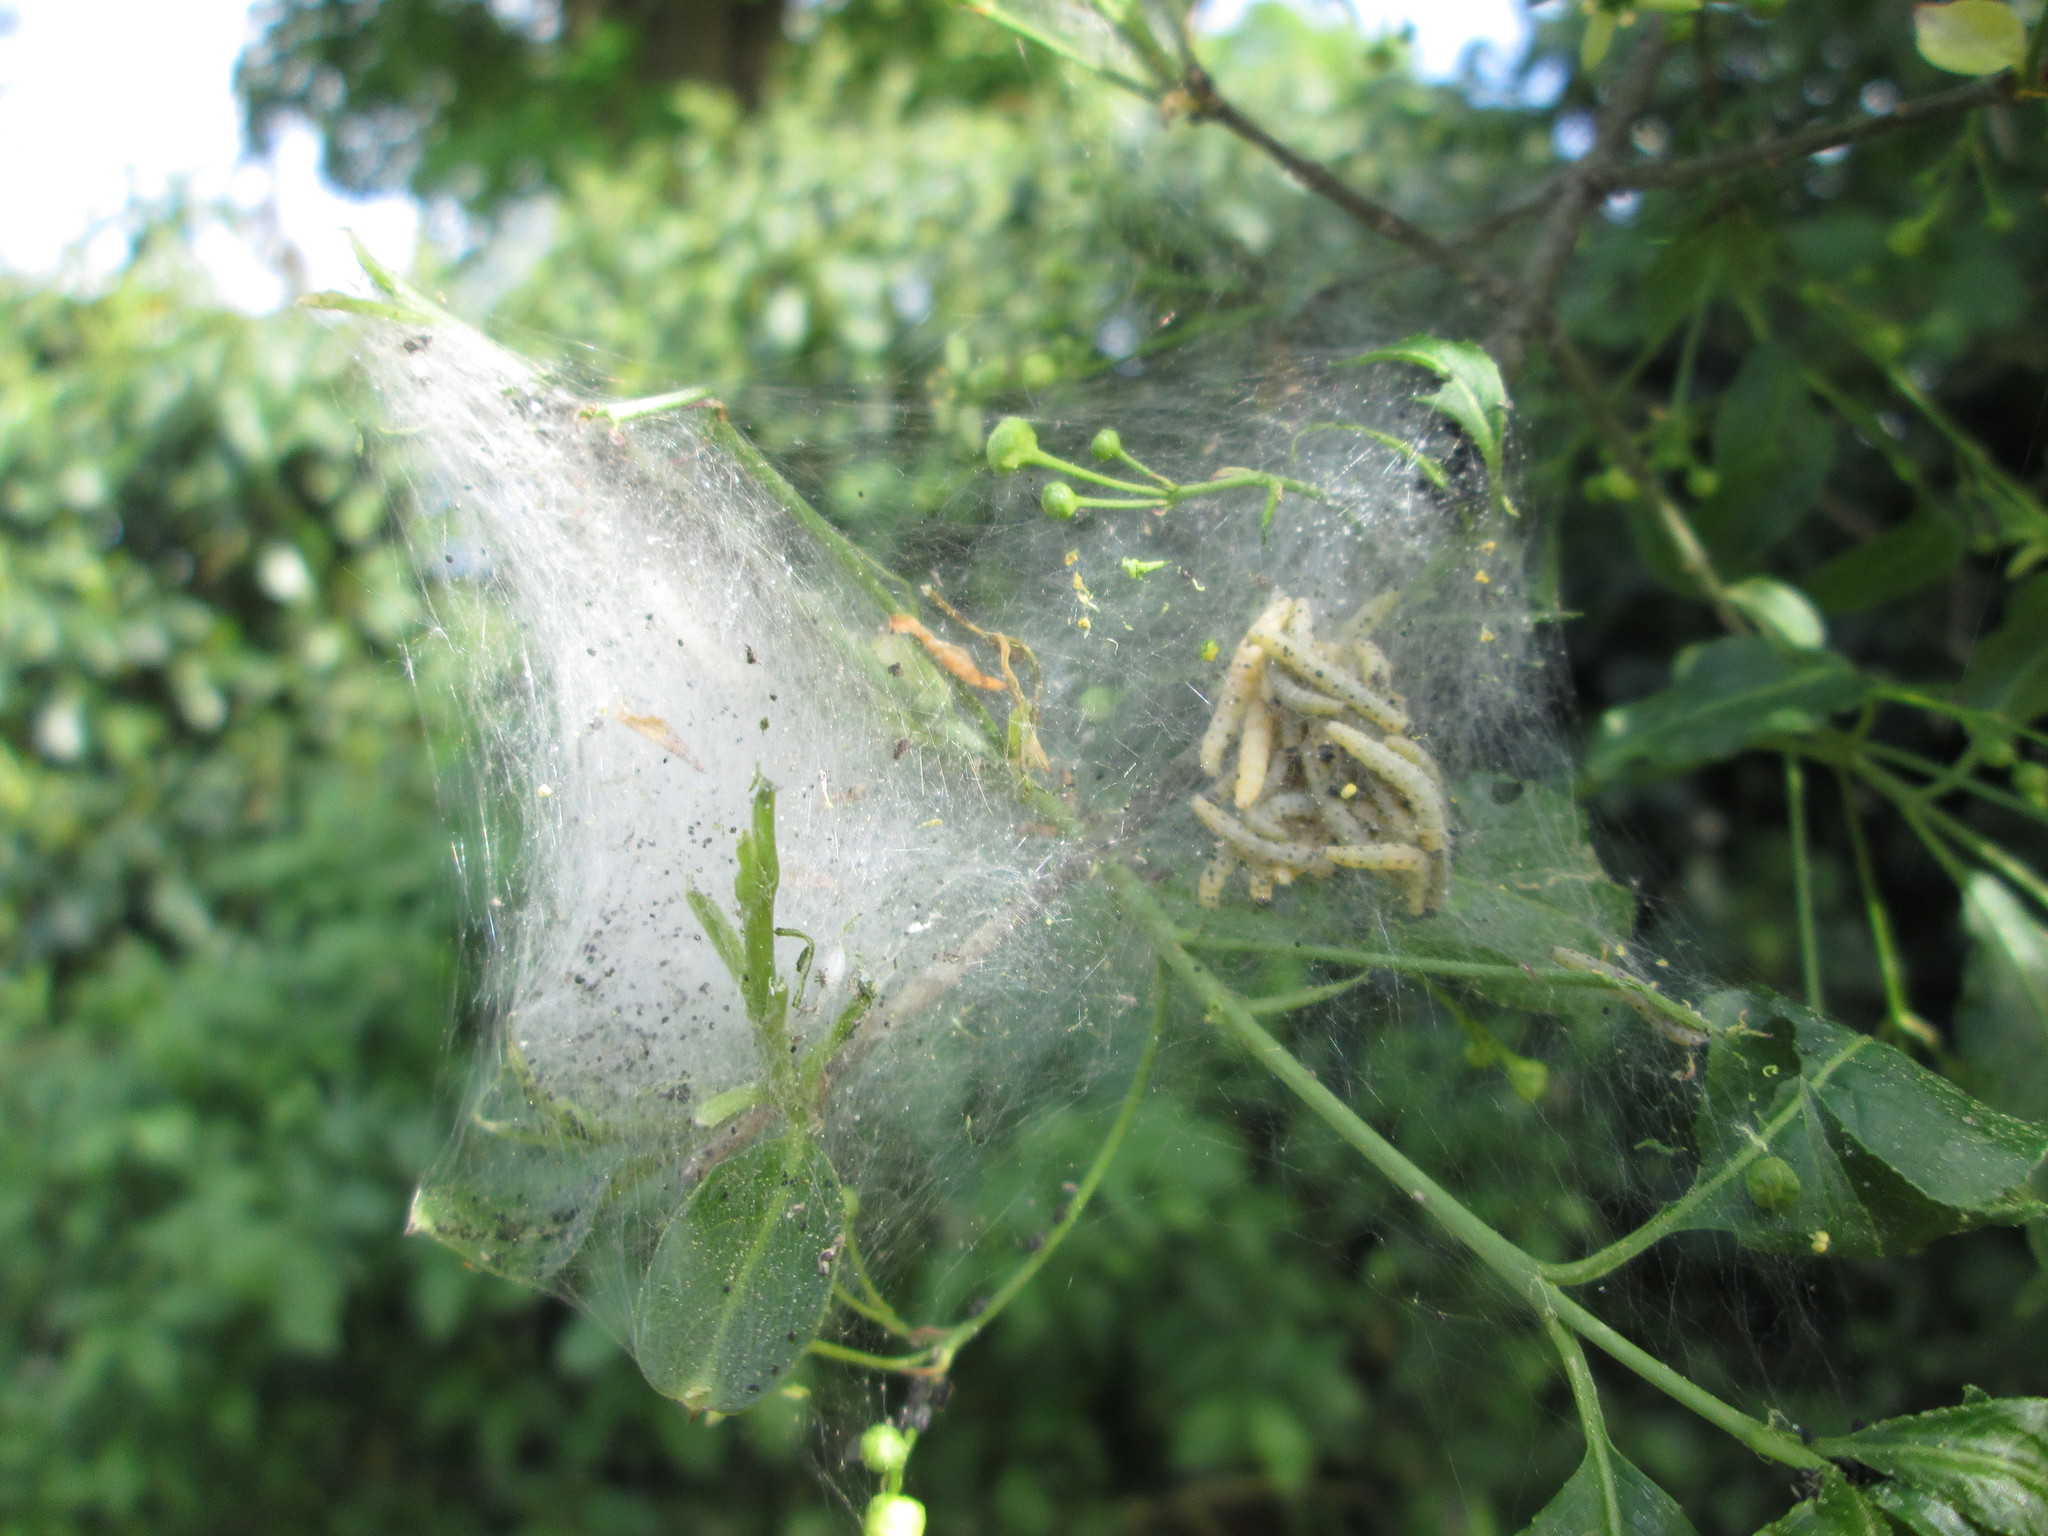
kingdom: Plantae
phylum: Tracheophyta
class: Magnoliopsida
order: Celastrales
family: Celastraceae
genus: Euonymus
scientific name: Euonymus europaeus
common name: Spindle
